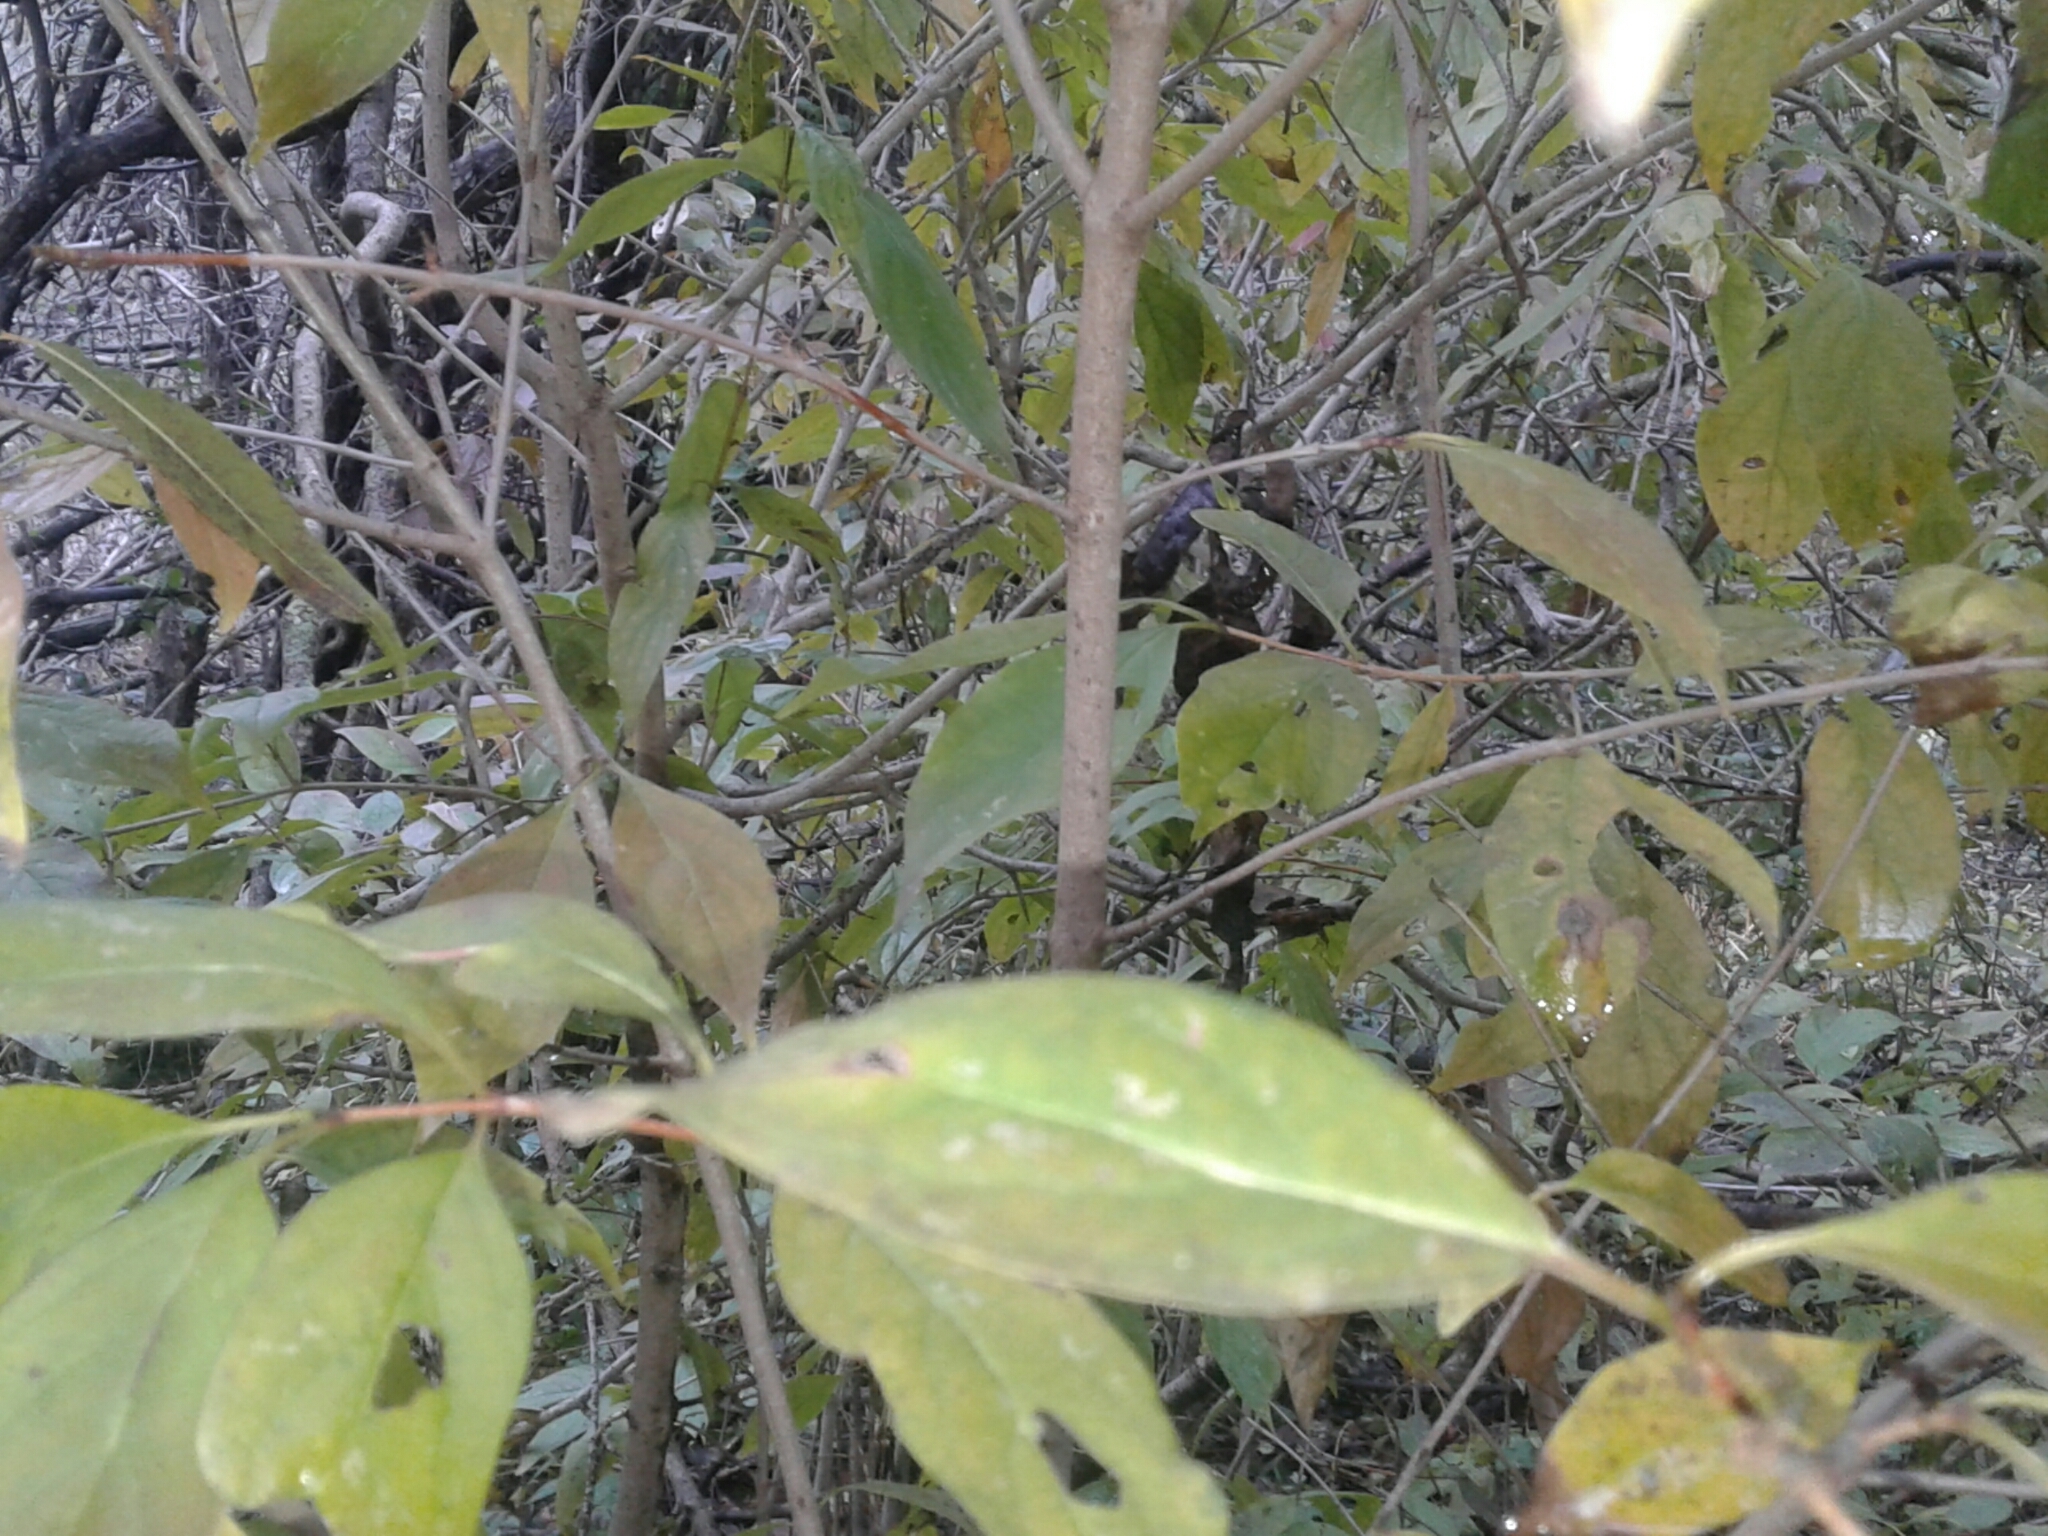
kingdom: Plantae
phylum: Tracheophyta
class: Magnoliopsida
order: Cornales
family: Cornaceae
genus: Cornus
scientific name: Cornus racemosa
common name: Panicled dogwood
